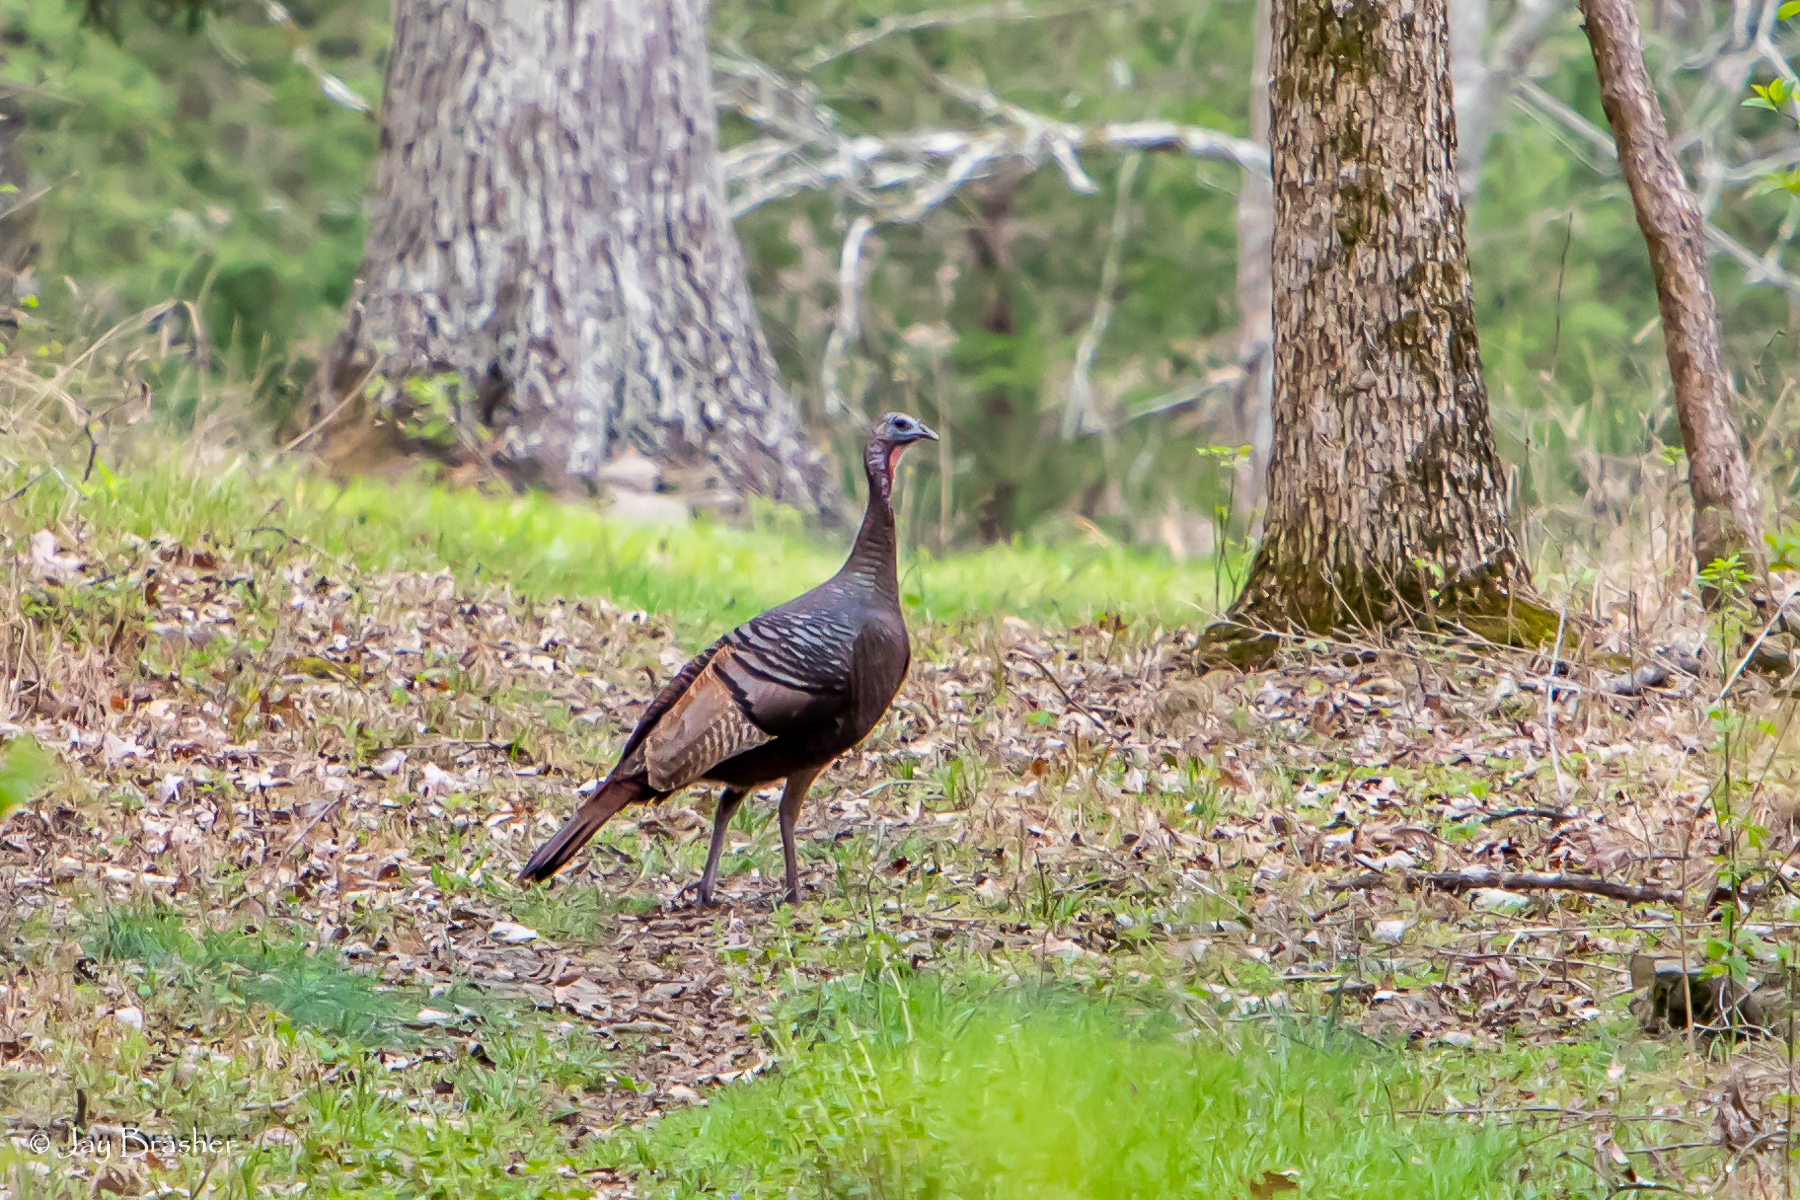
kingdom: Animalia
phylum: Chordata
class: Aves
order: Galliformes
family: Phasianidae
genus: Meleagris
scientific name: Meleagris gallopavo
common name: Wild turkey
